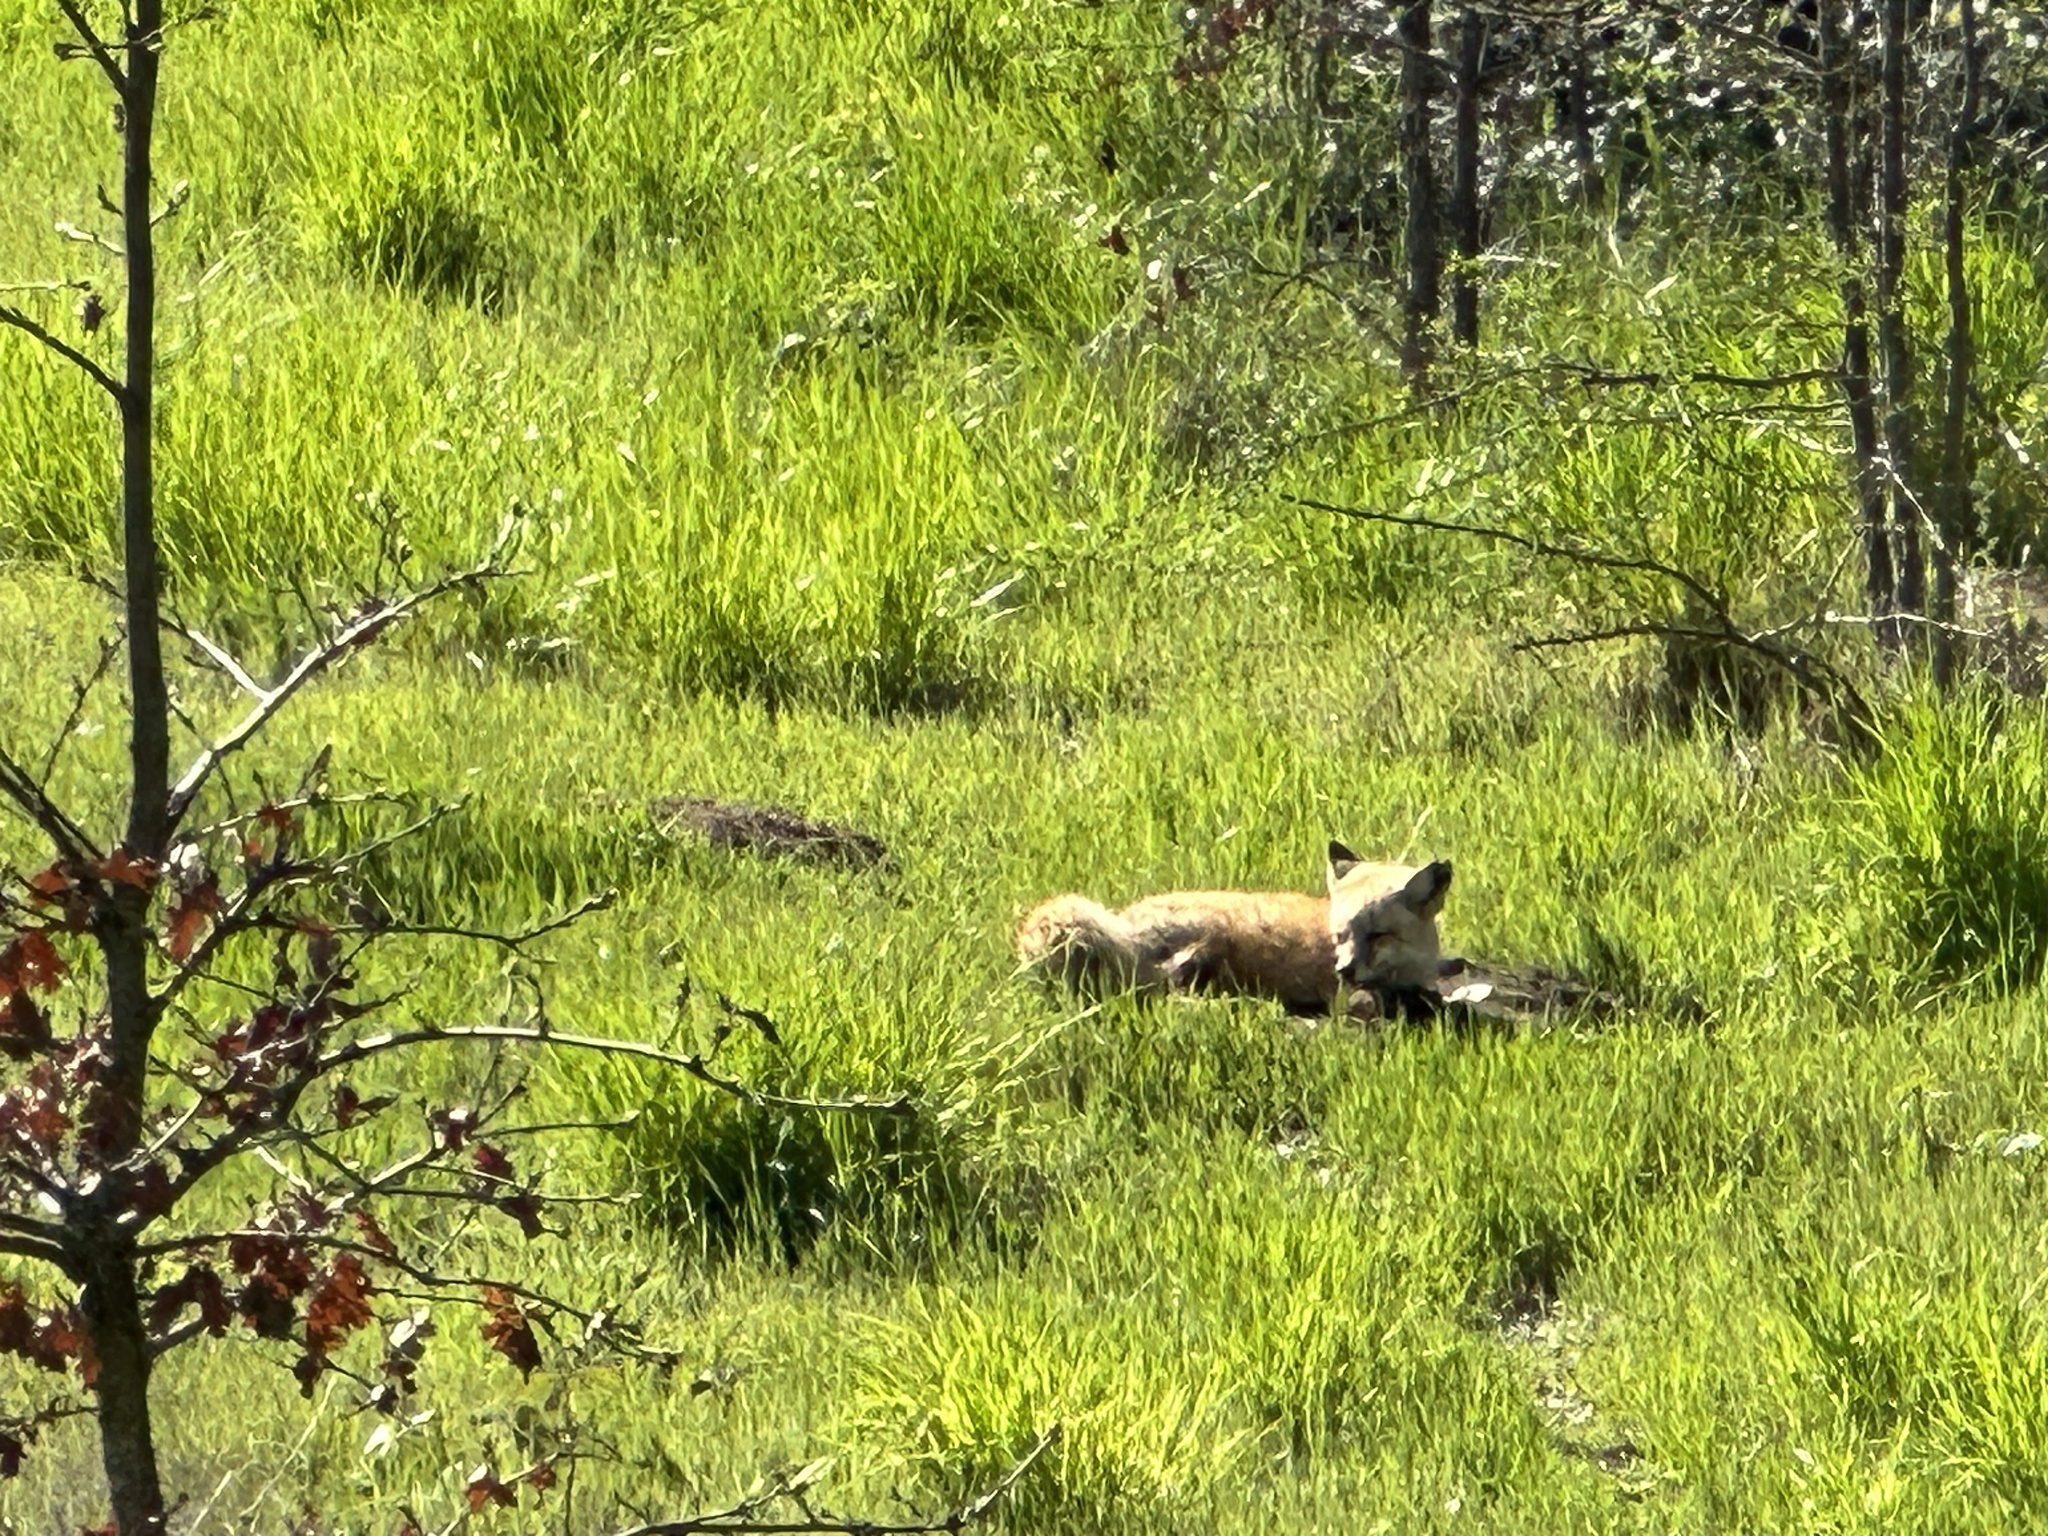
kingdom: Animalia
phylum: Chordata
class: Mammalia
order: Carnivora
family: Canidae
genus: Vulpes
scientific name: Vulpes vulpes
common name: Red fox
